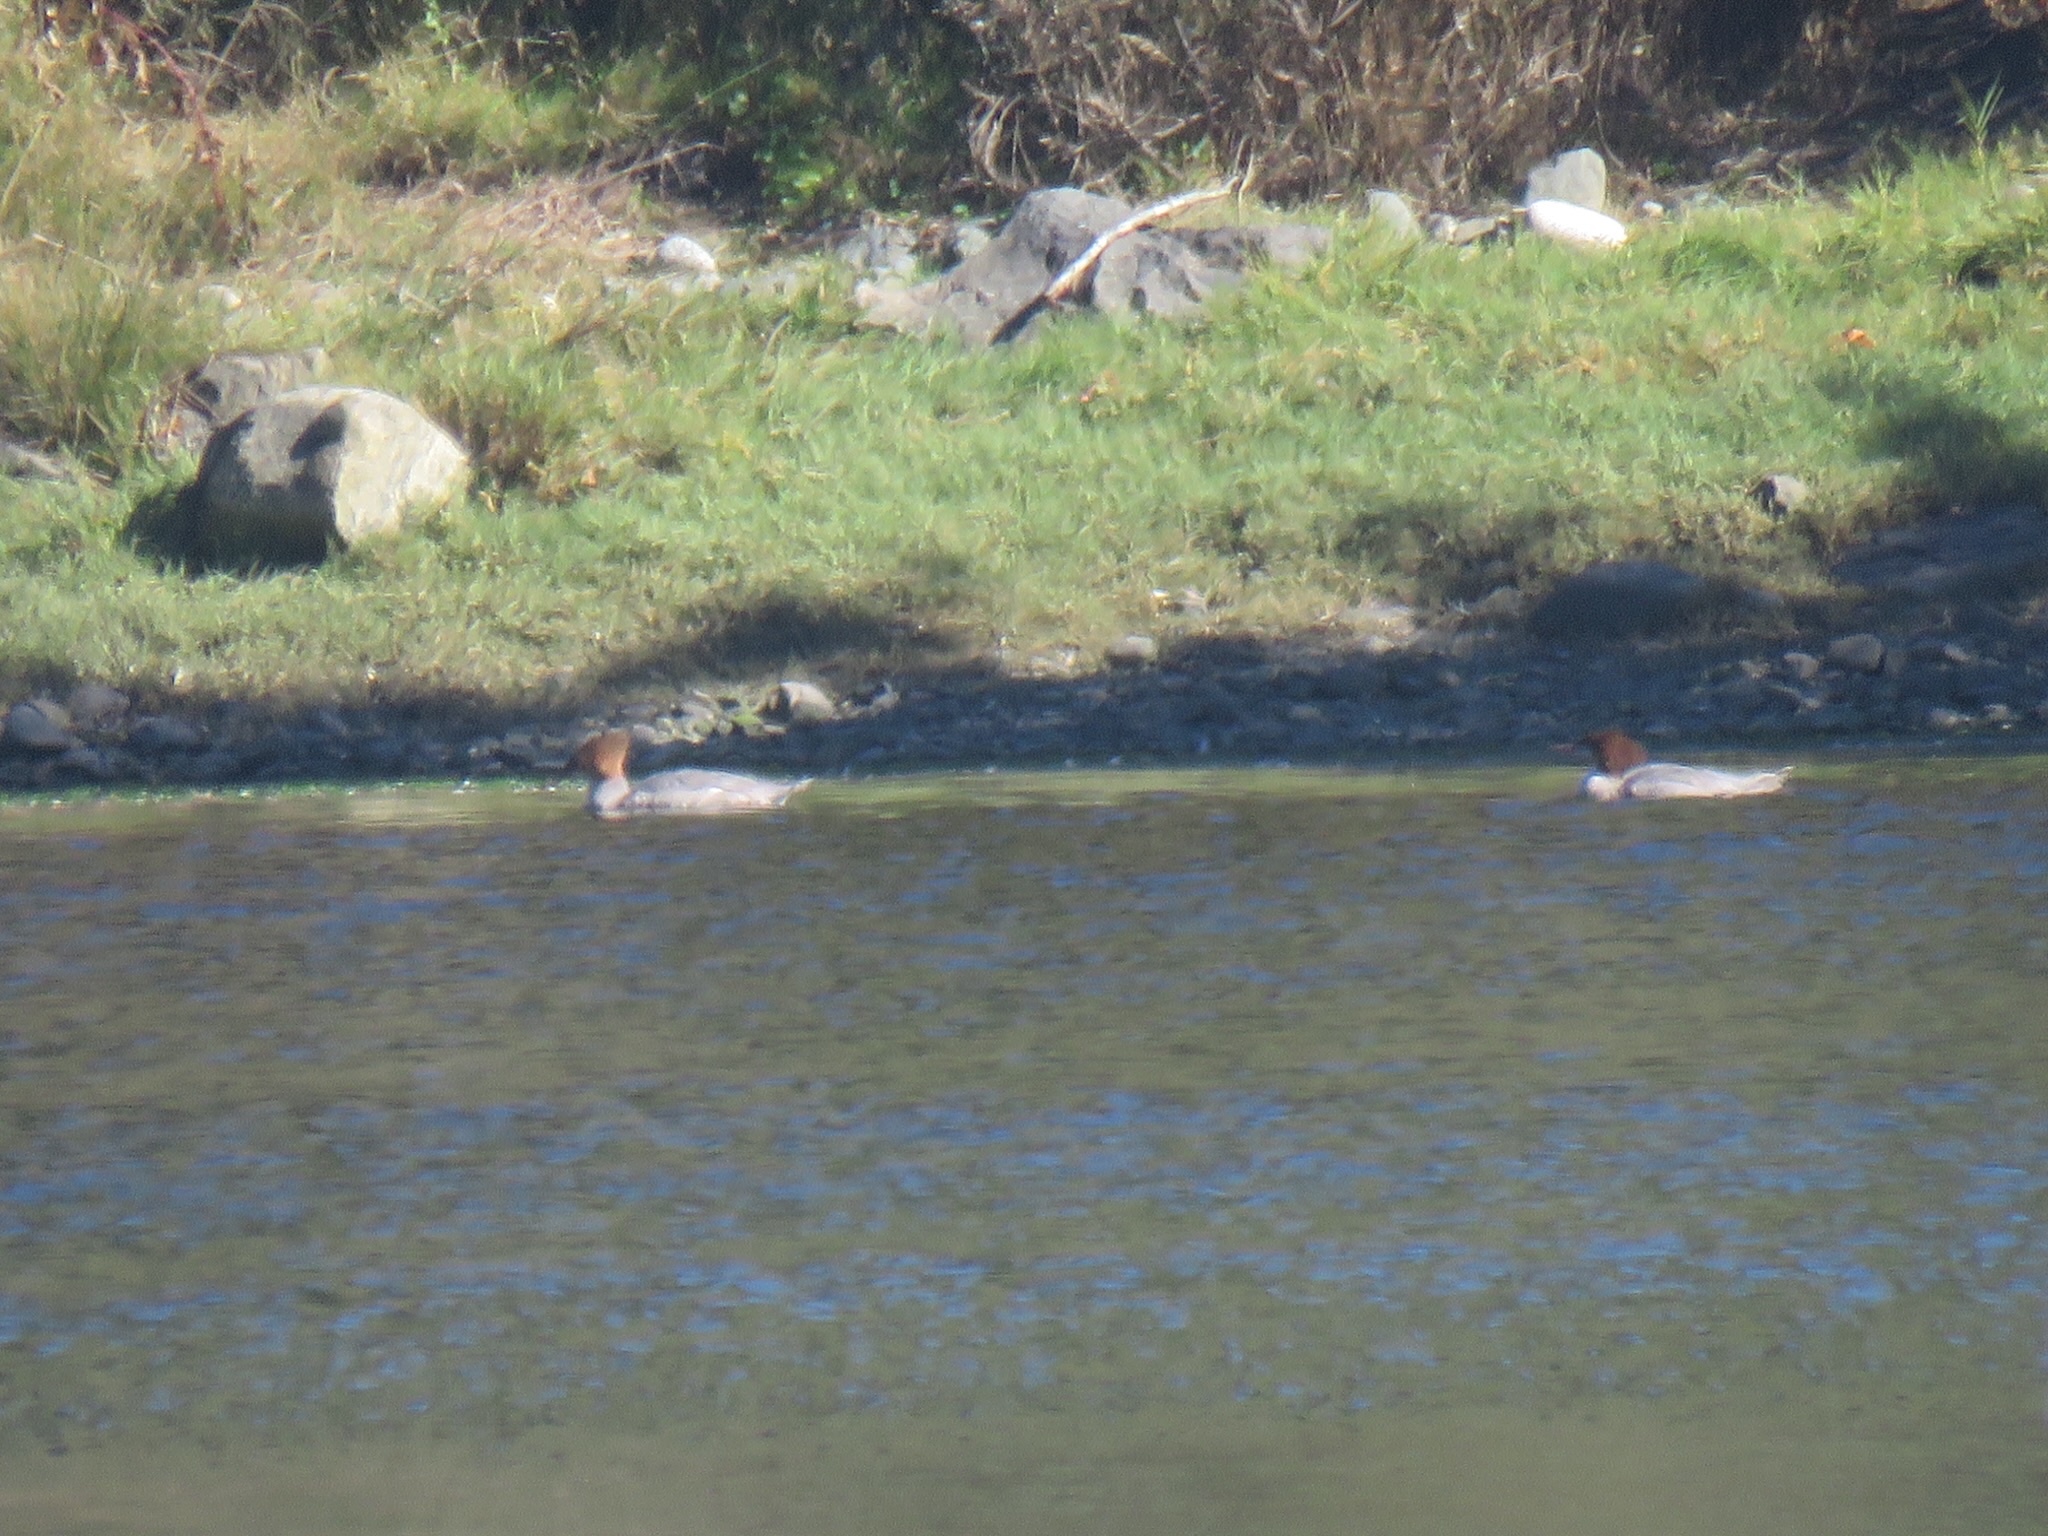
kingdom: Animalia
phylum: Chordata
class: Aves
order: Anseriformes
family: Anatidae
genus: Mergus
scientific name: Mergus merganser
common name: Common merganser
